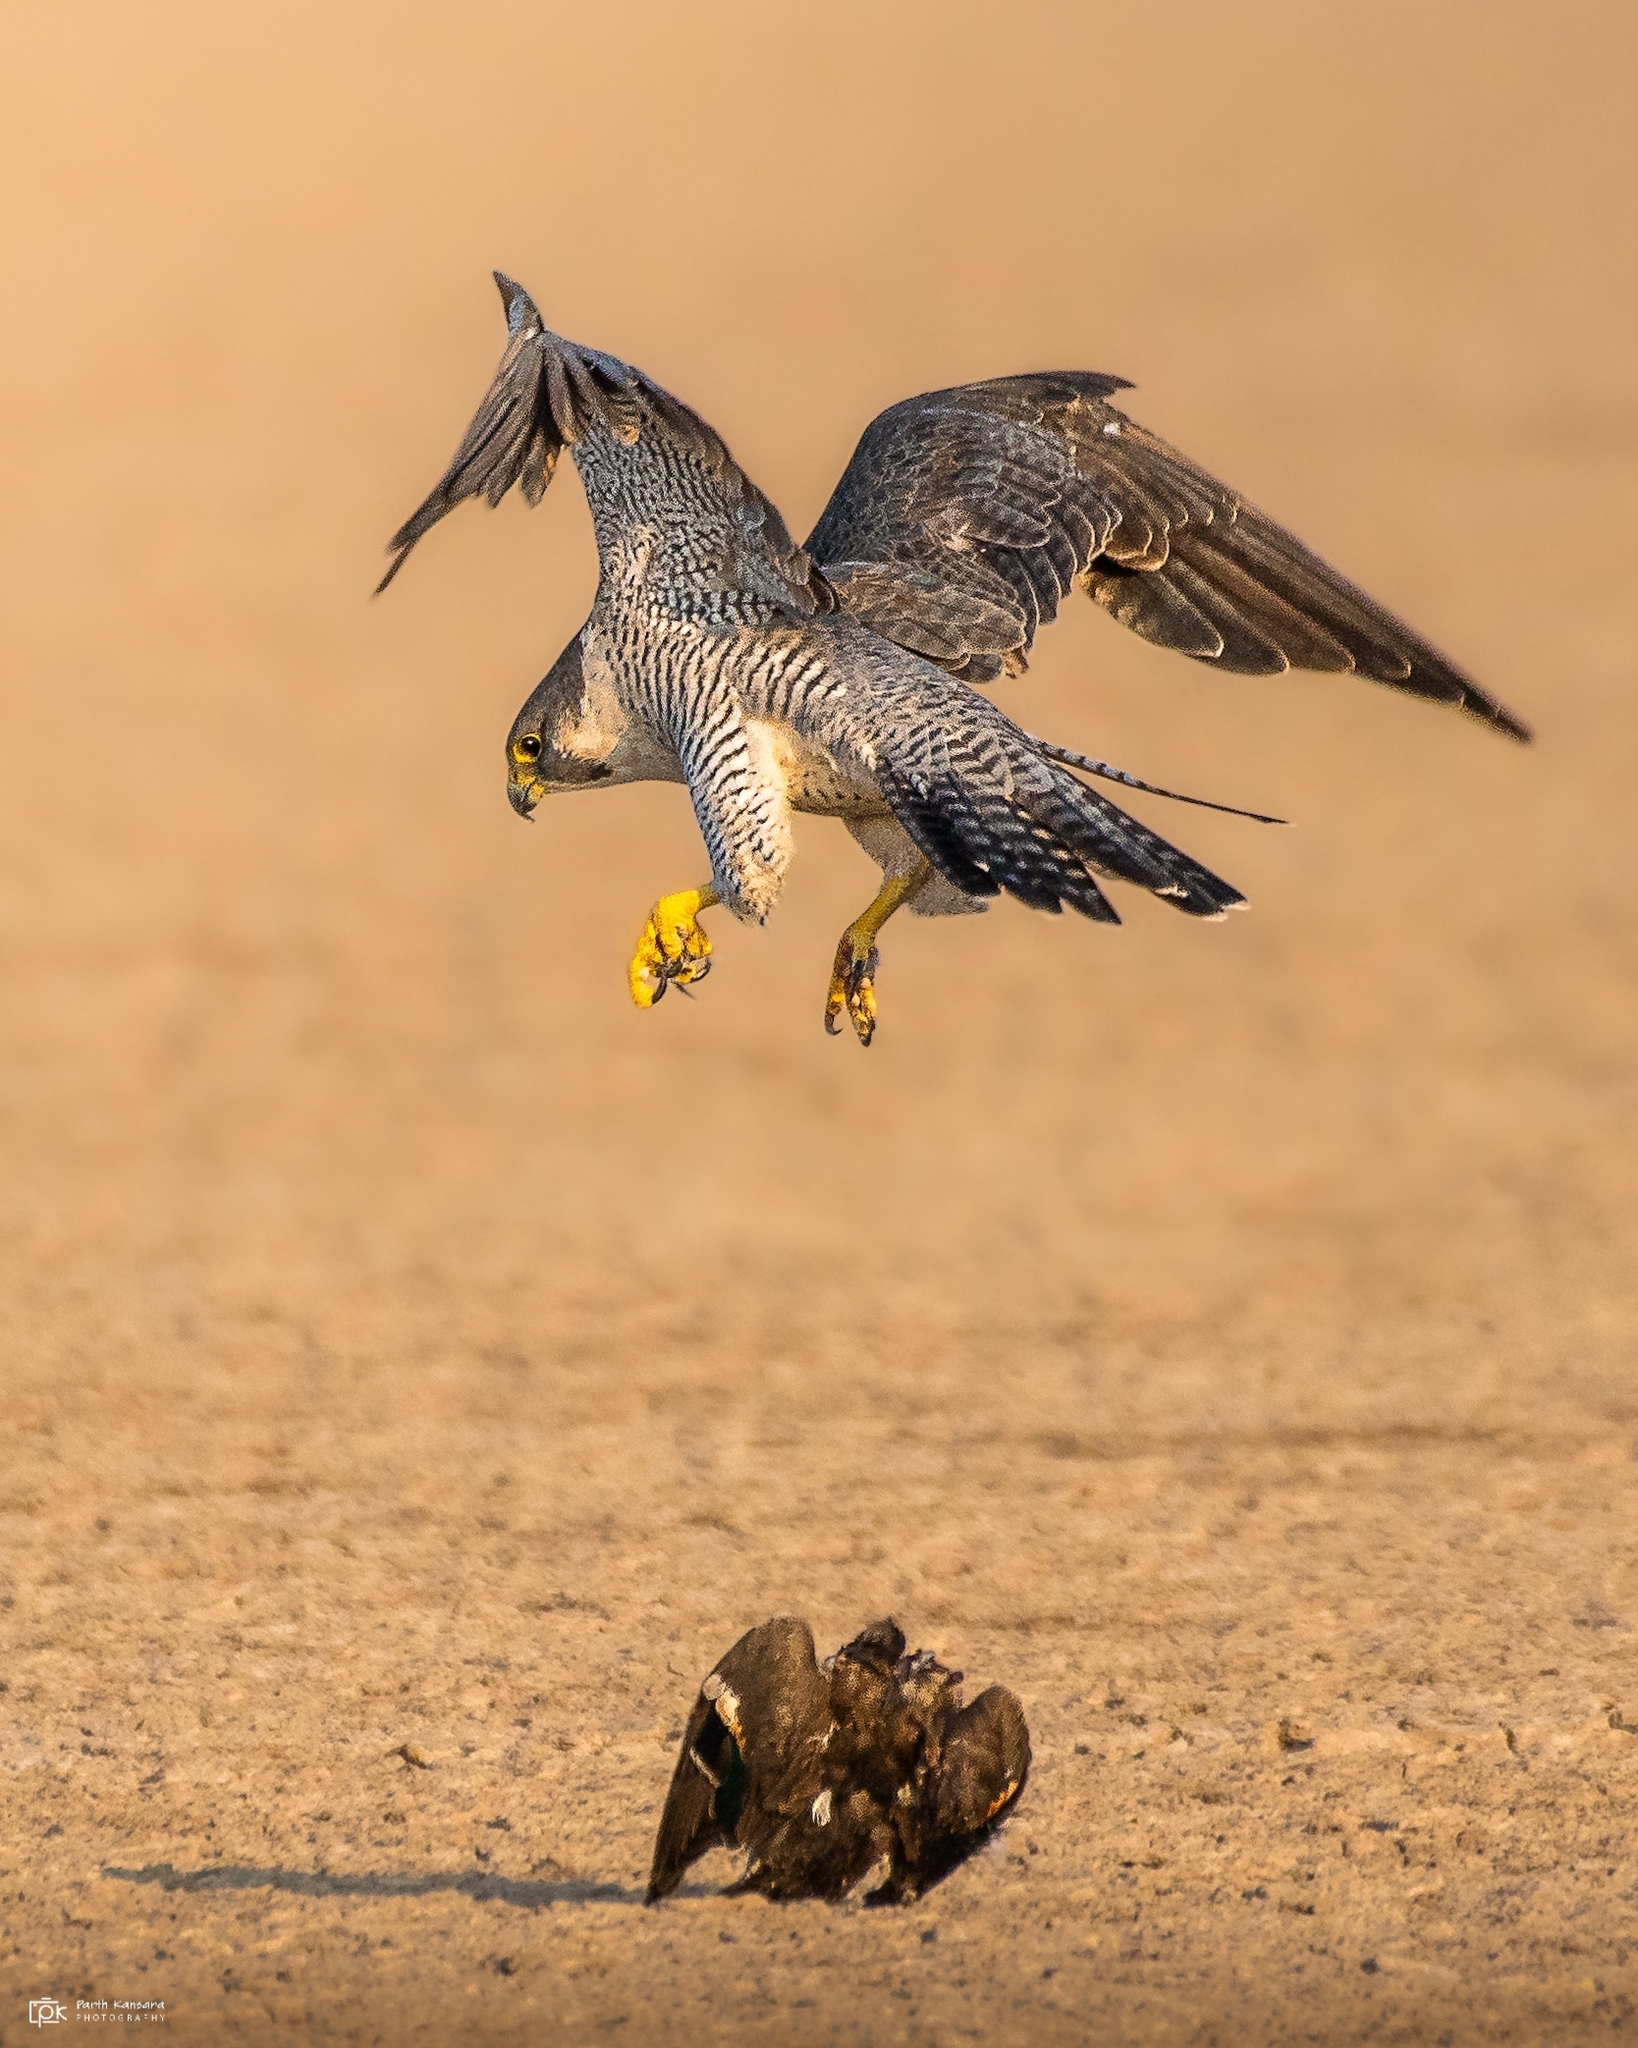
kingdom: Animalia
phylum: Chordata
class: Aves
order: Falconiformes
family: Falconidae
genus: Falco
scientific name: Falco peregrinus
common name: Peregrine falcon
